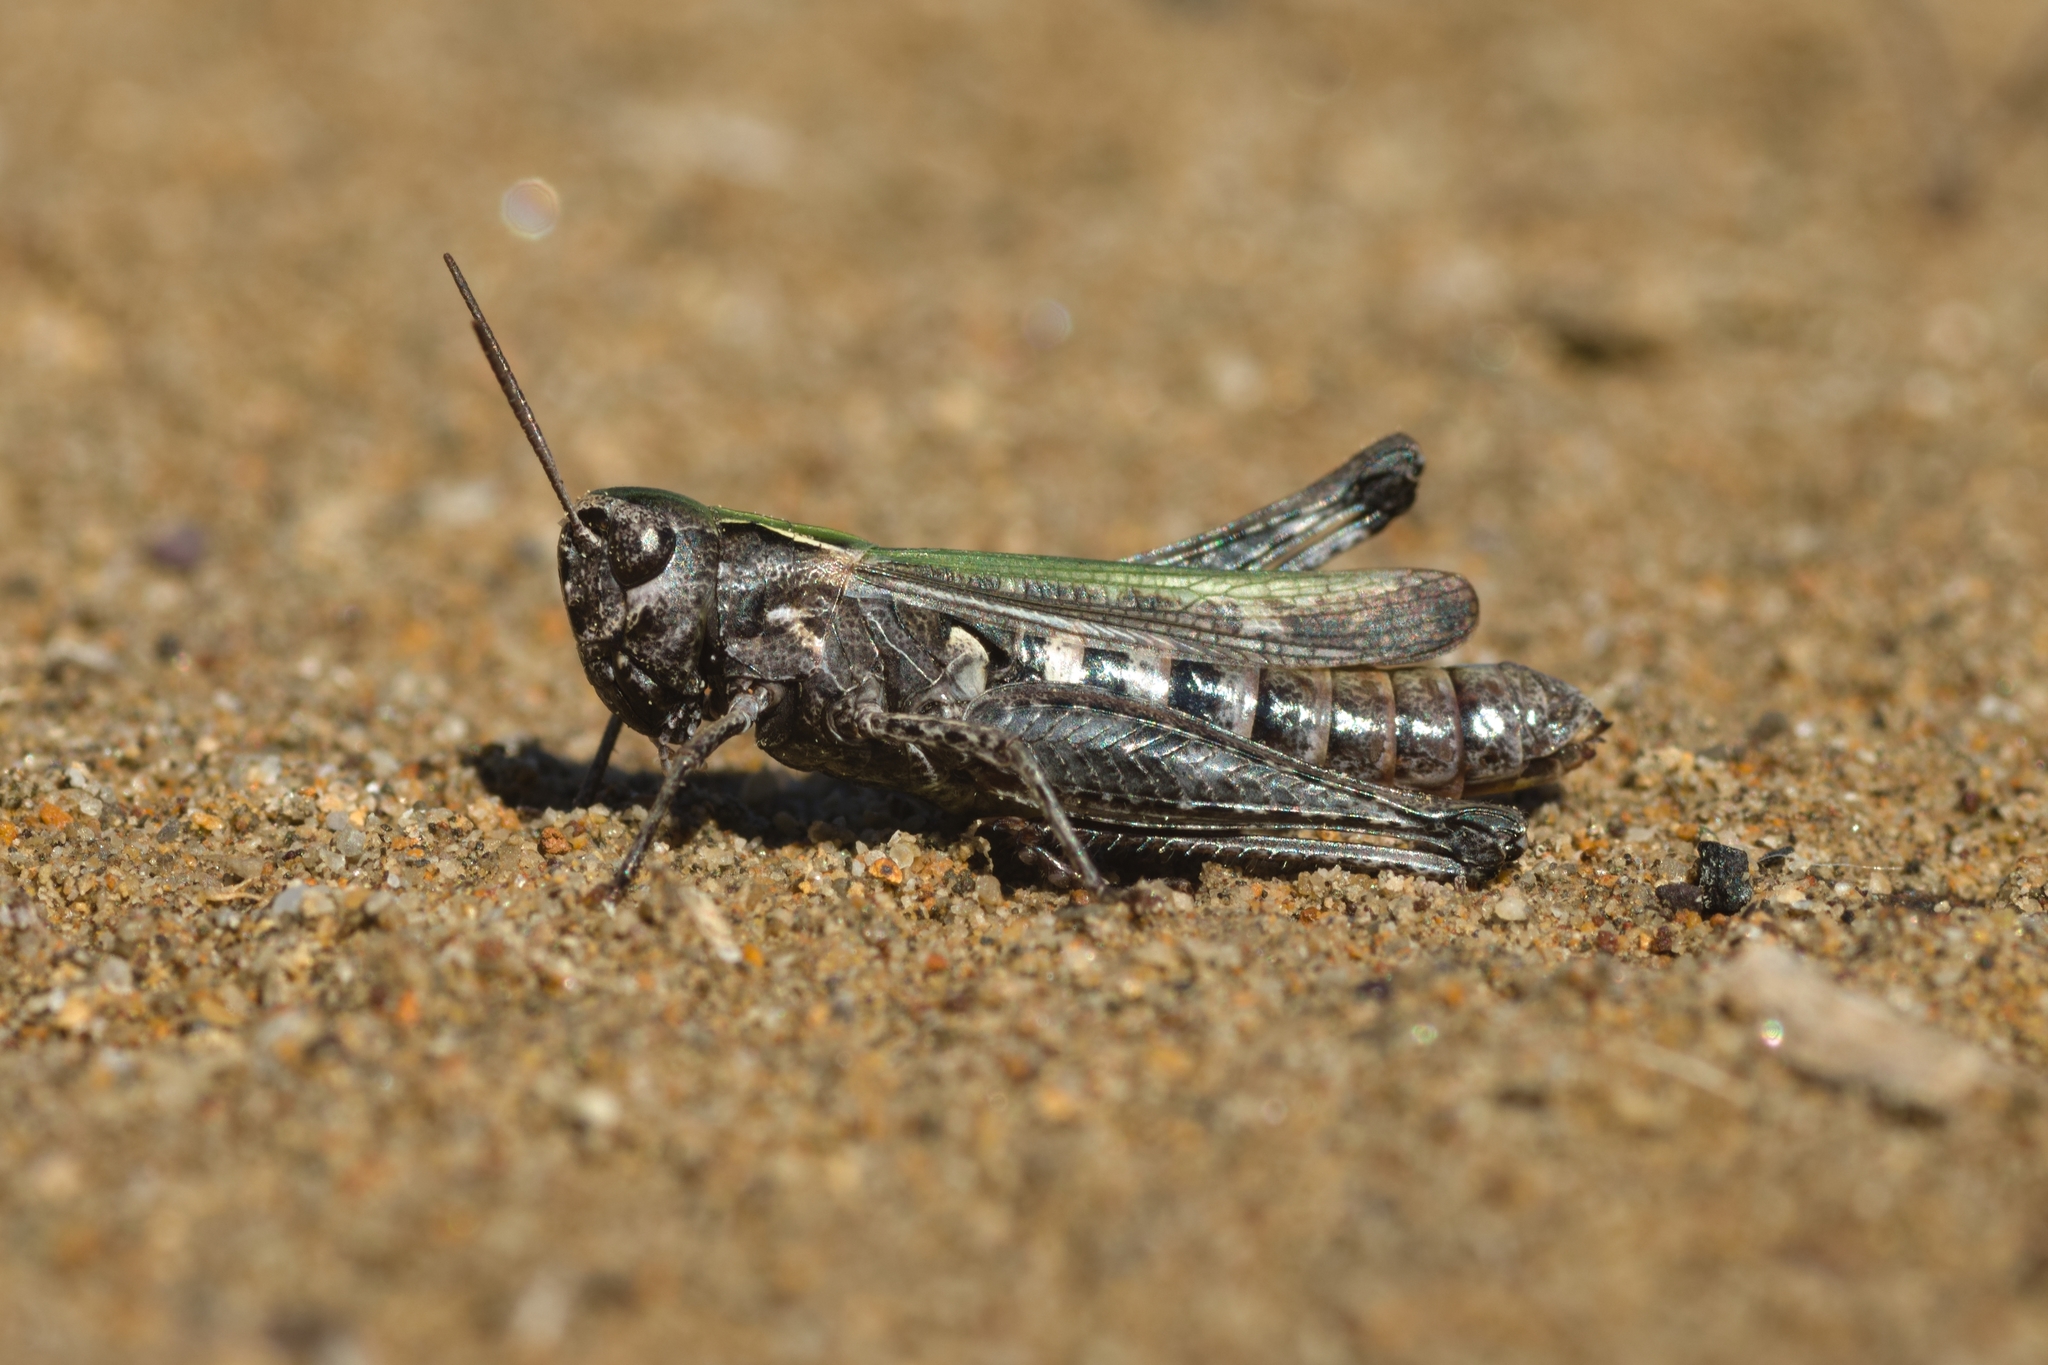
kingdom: Animalia
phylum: Arthropoda
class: Insecta
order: Orthoptera
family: Acrididae
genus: Omocestus
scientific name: Omocestus haemorrhoidalis
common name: Orange-tipped grasshopper
